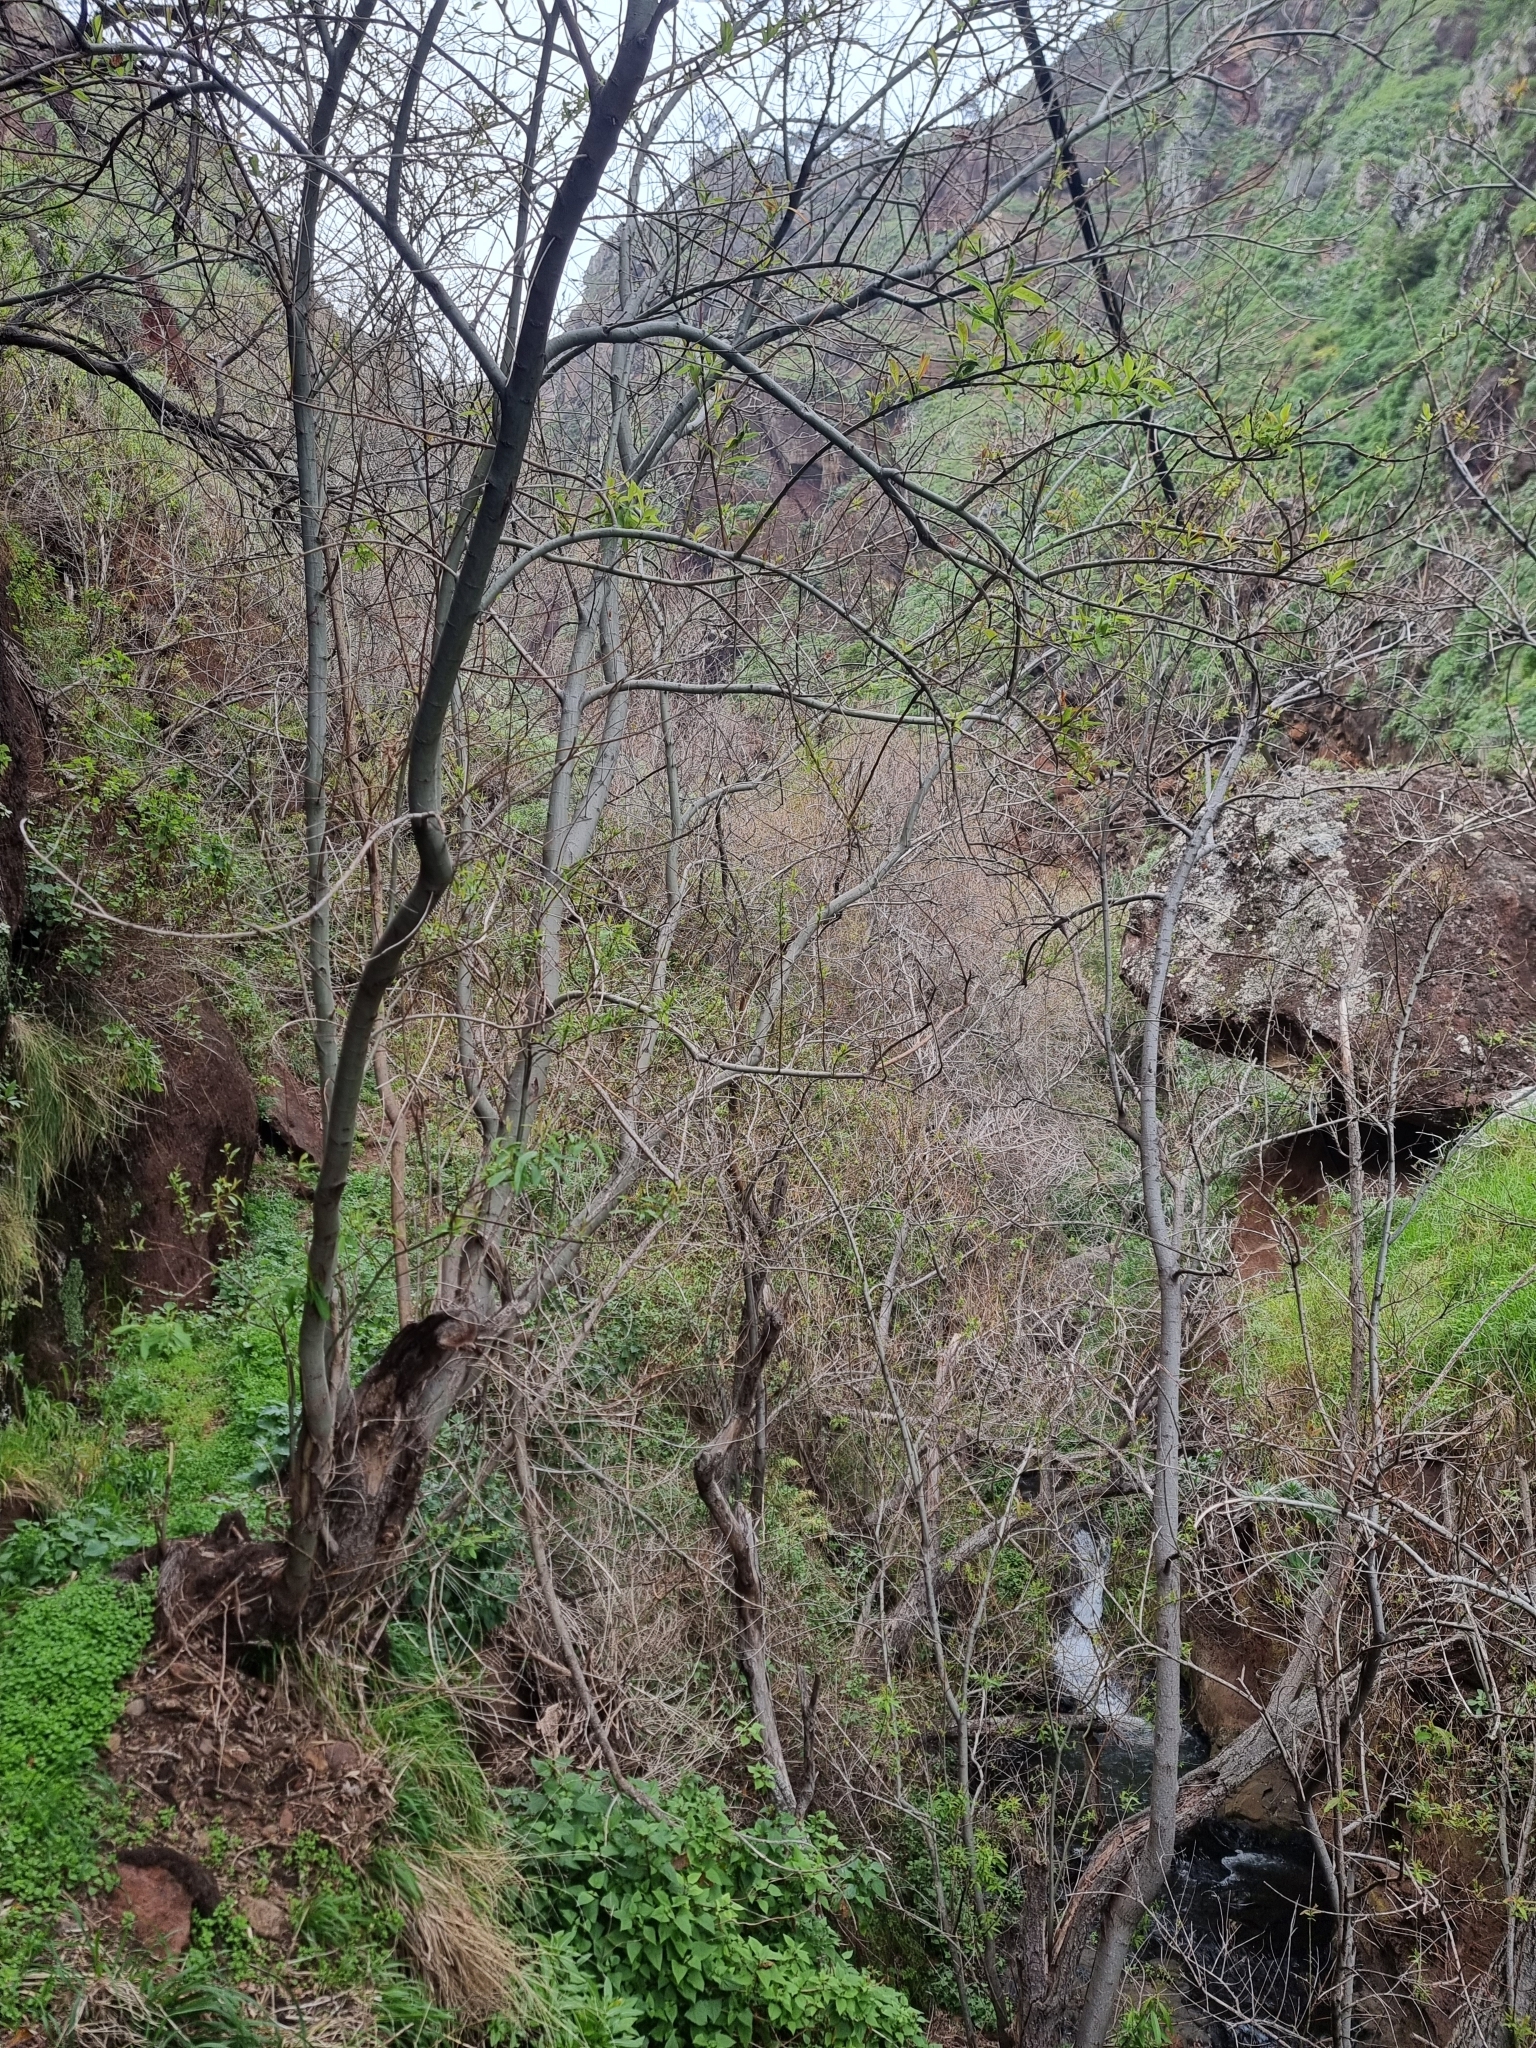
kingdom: Plantae
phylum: Tracheophyta
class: Magnoliopsida
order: Malpighiales
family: Salicaceae
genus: Salix
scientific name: Salix canariensis
